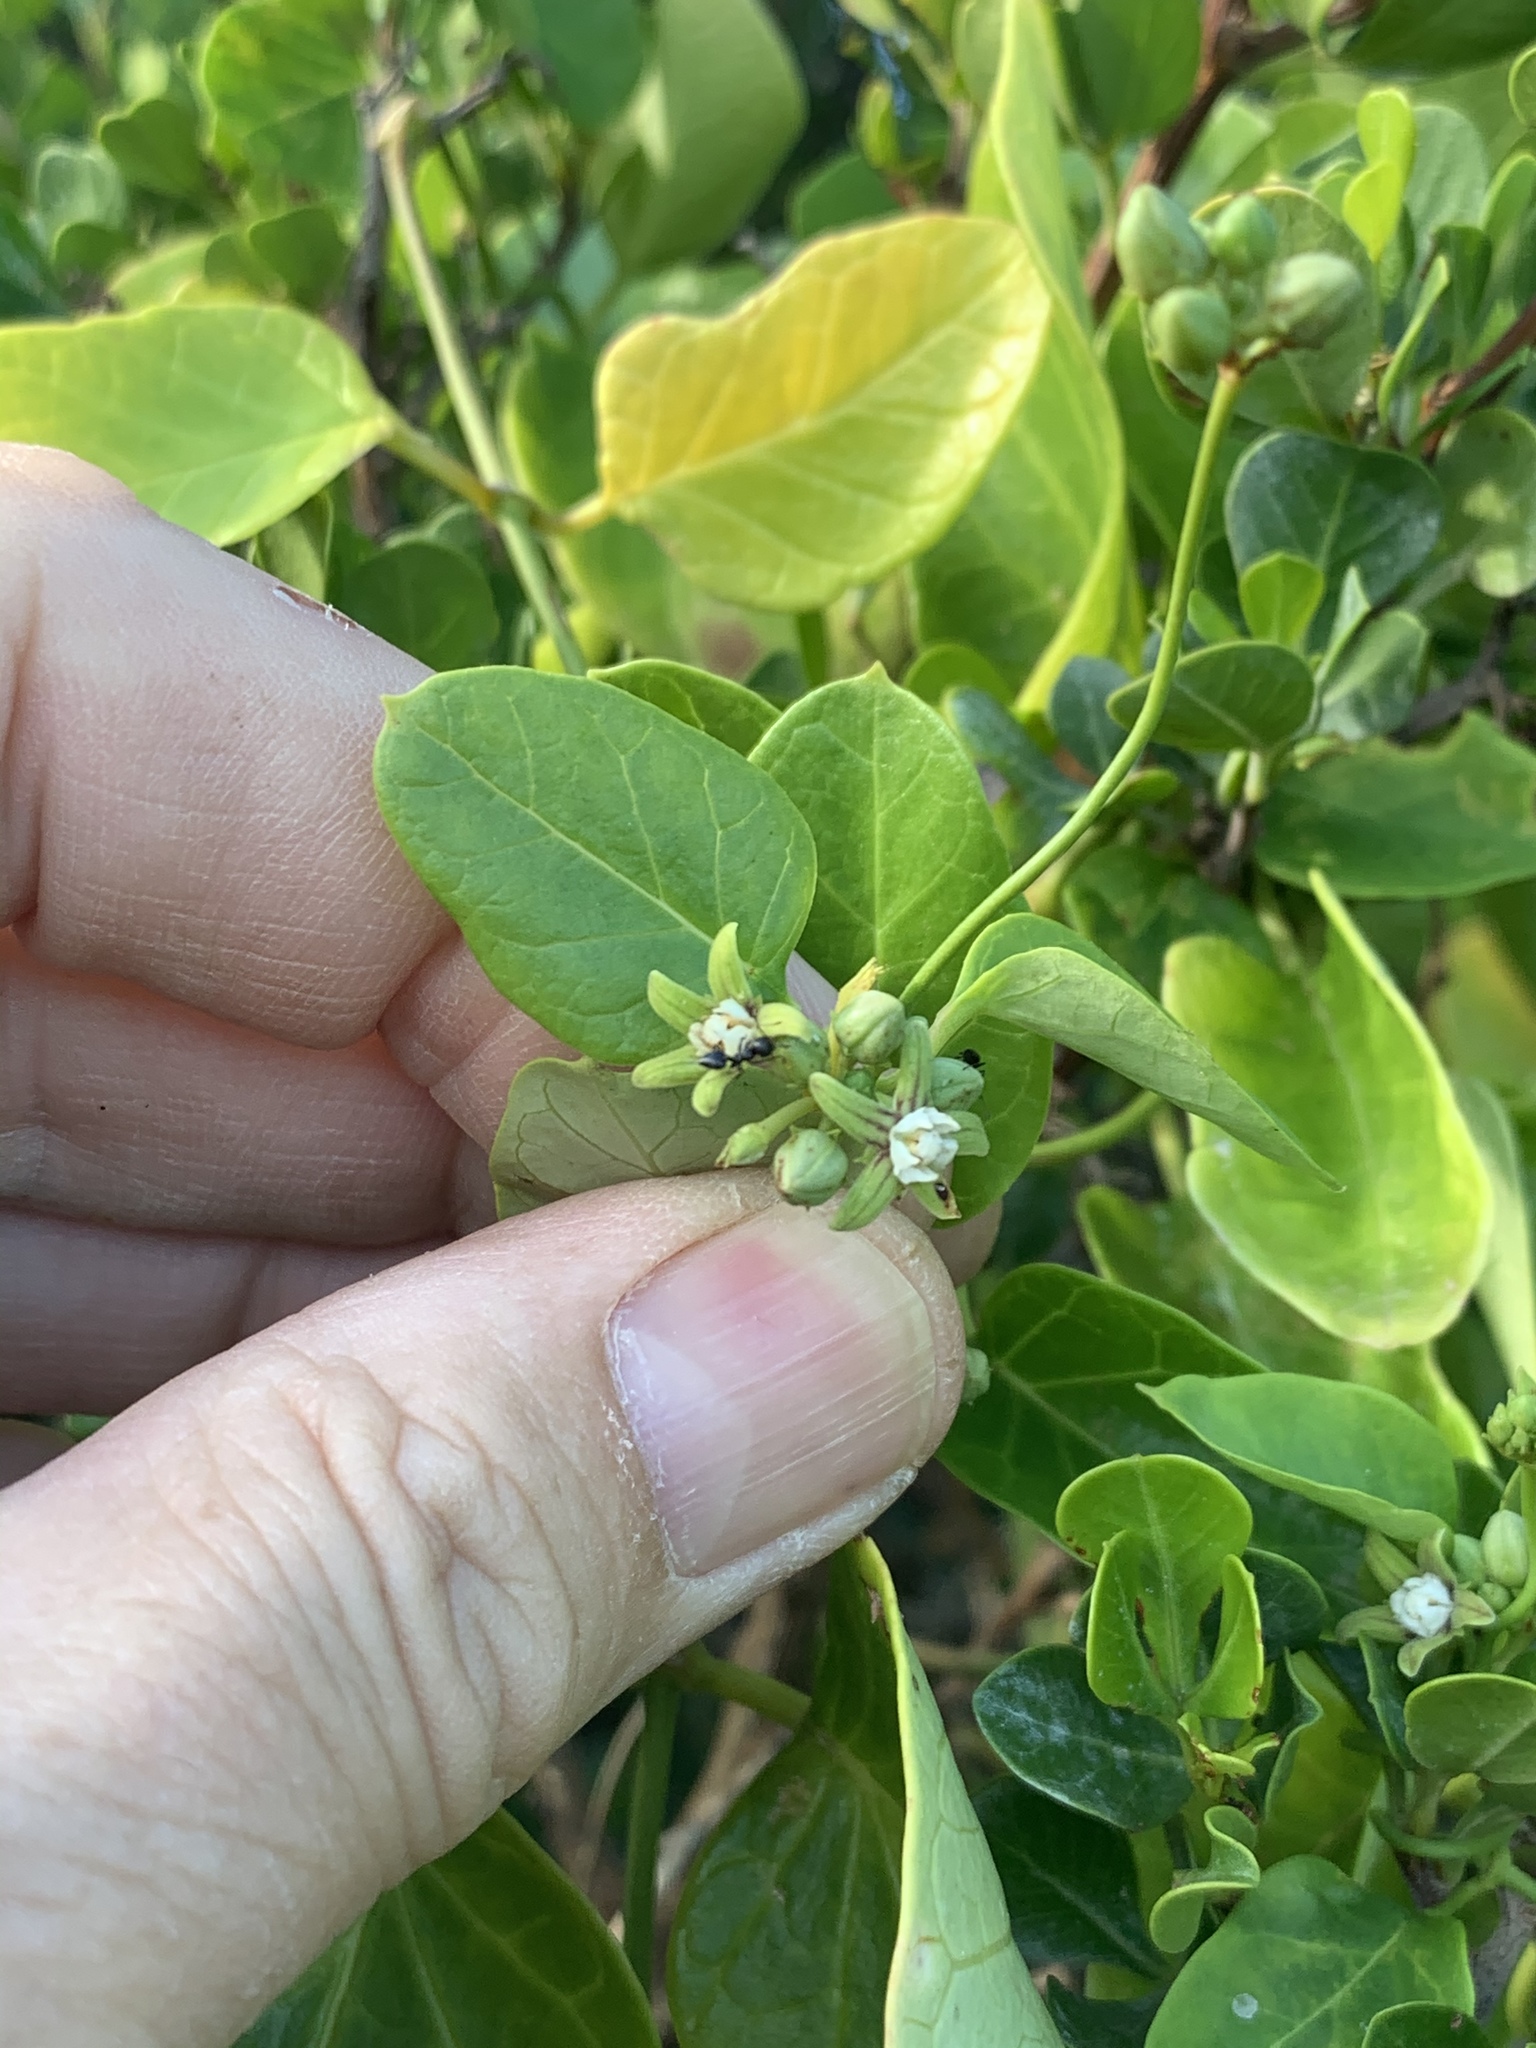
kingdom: Plantae
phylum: Tracheophyta
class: Magnoliopsida
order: Gentianales
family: Apocynaceae
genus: Cynanchum
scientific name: Cynanchum obtusifolium
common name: Monkey-rope
